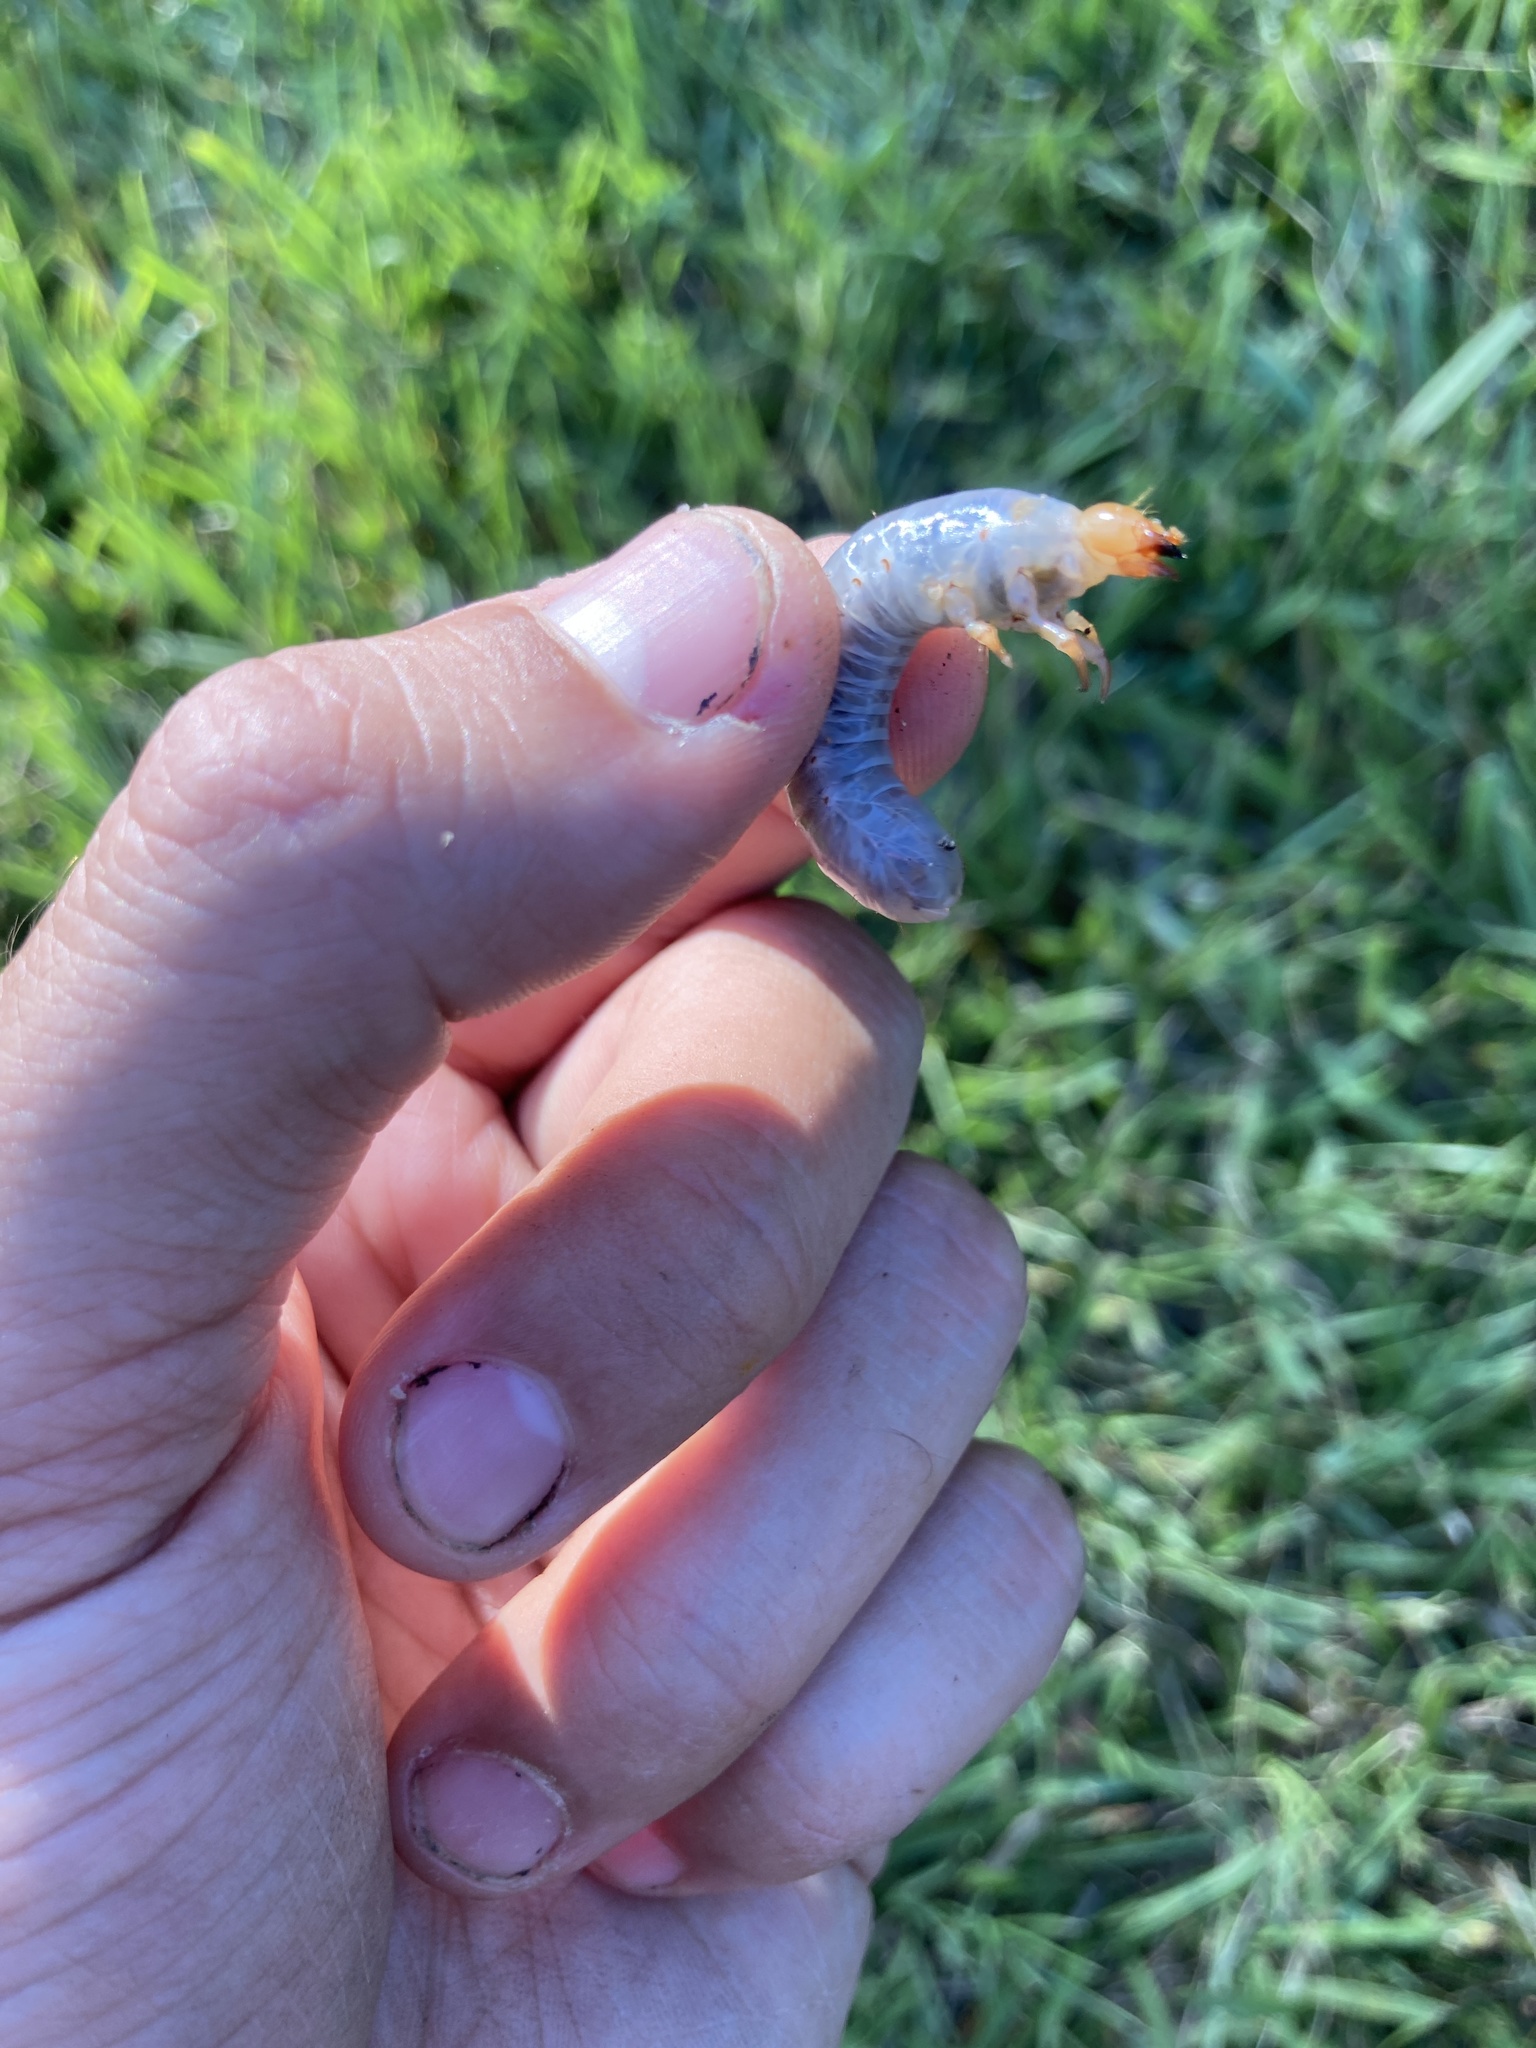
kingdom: Animalia
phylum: Arthropoda
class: Insecta
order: Coleoptera
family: Passalidae
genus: Odontotaenius
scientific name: Odontotaenius disjunctus
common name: Patent leather beetle
